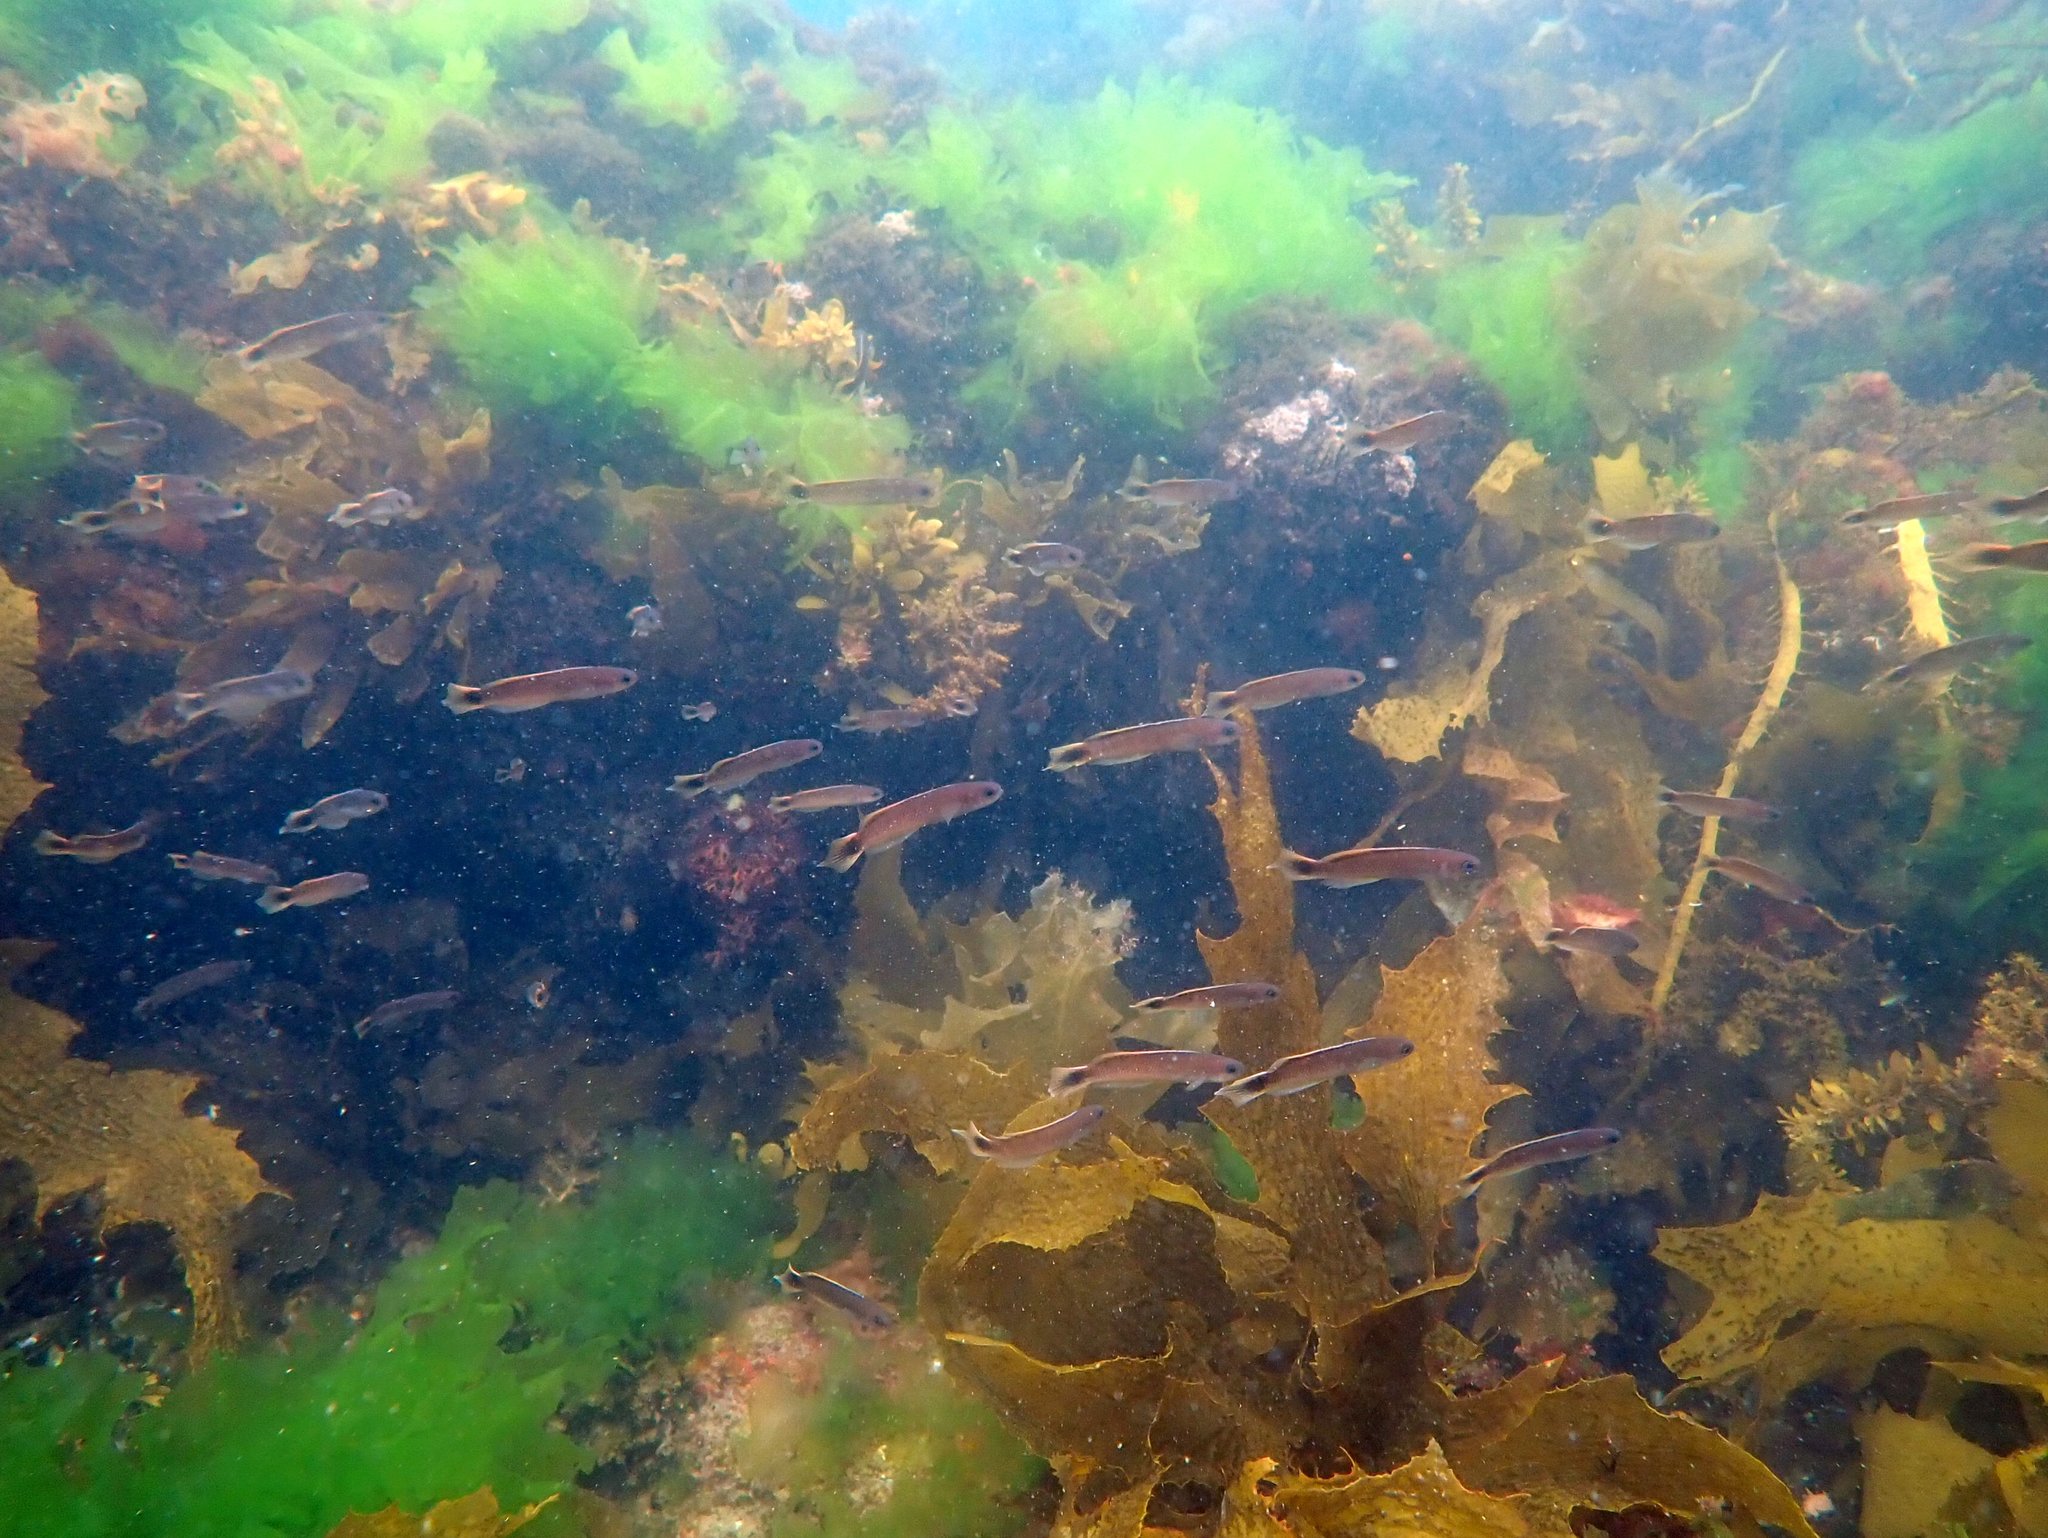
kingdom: Animalia
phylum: Chordata
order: Perciformes
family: Plesiopidae
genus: Trachinops
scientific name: Trachinops caudimaculatus
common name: Blotched-tailed trachinops
